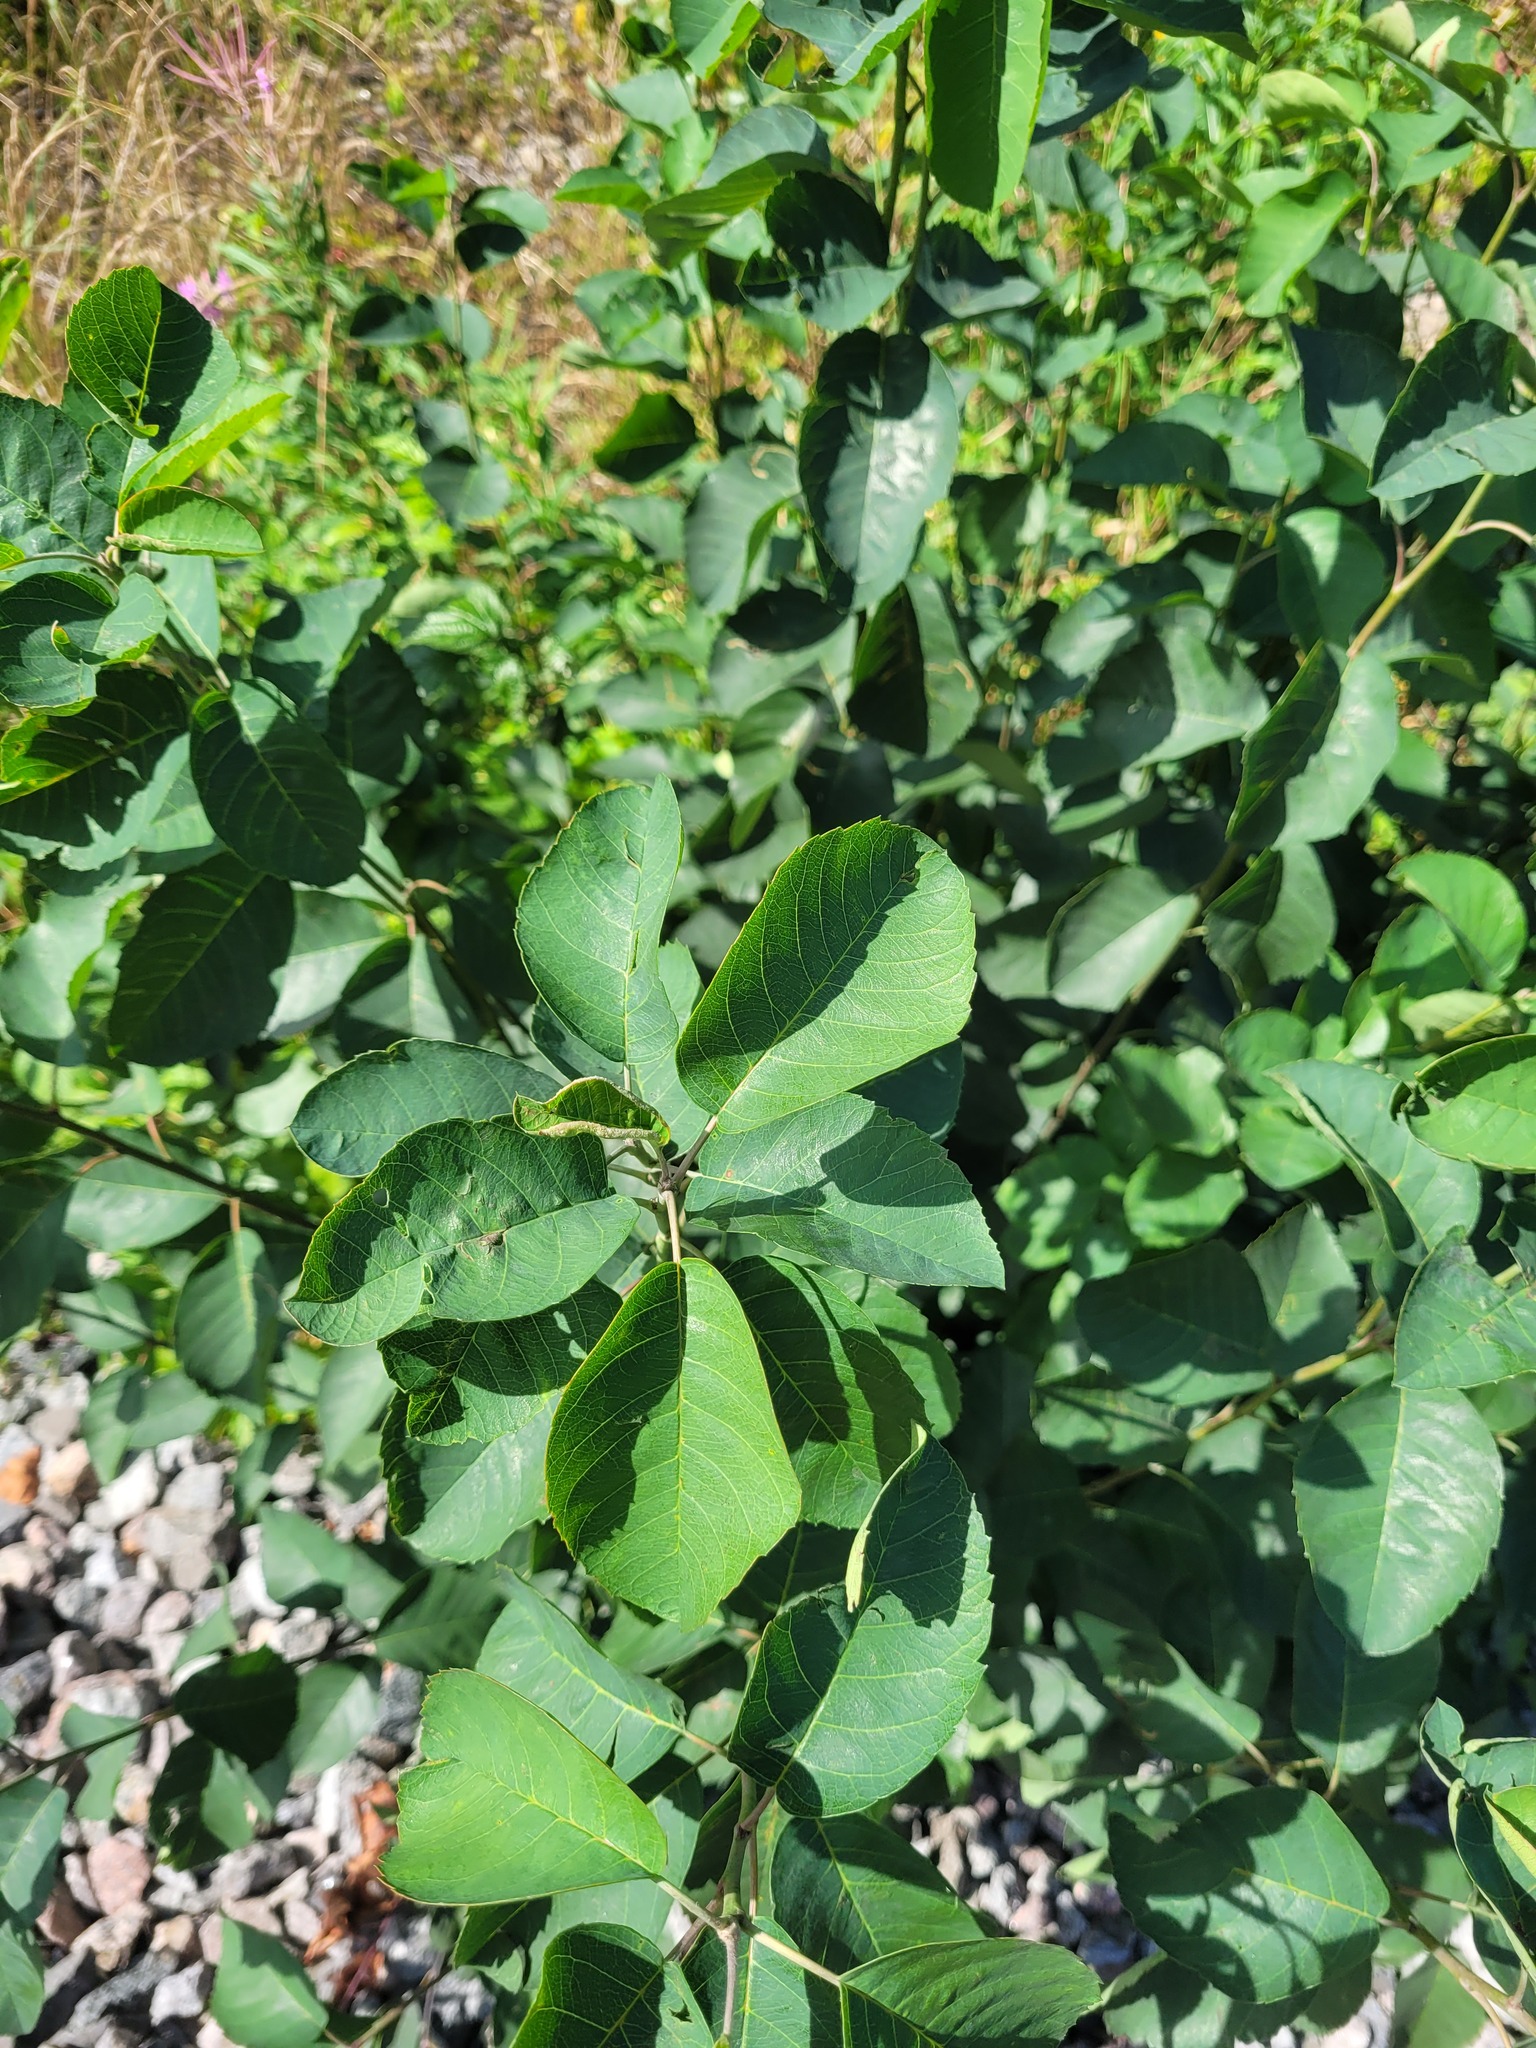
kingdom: Plantae
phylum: Tracheophyta
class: Magnoliopsida
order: Rosales
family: Rosaceae
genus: Amelanchier
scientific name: Amelanchier
